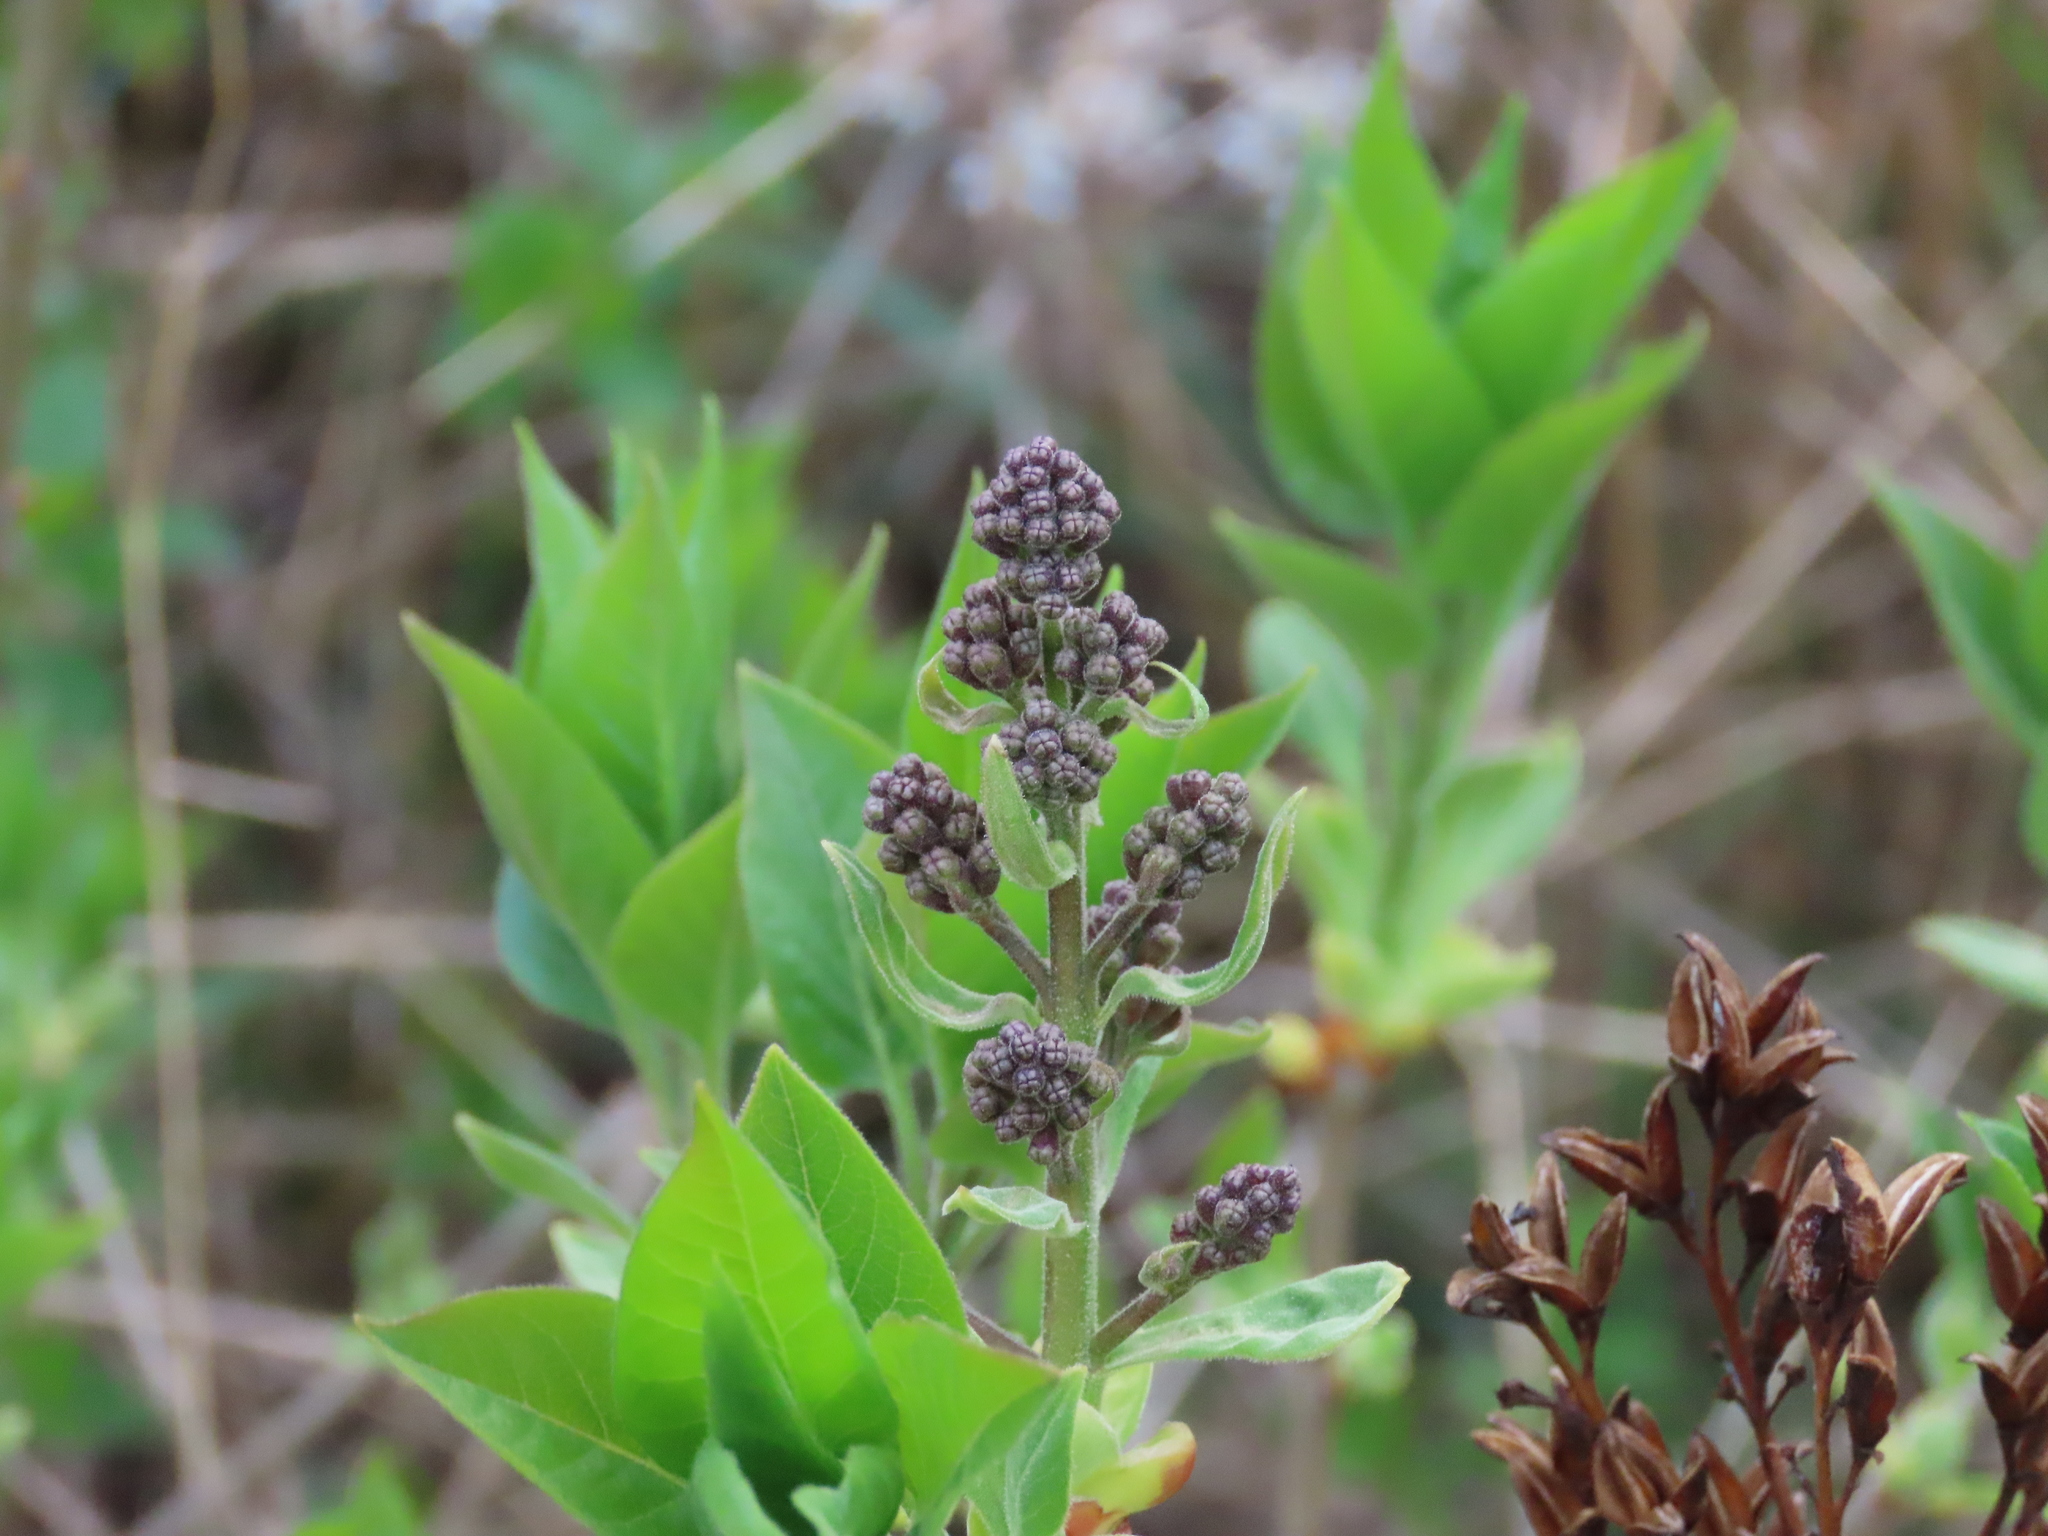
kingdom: Plantae
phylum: Tracheophyta
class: Magnoliopsida
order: Lamiales
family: Oleaceae
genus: Syringa
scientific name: Syringa vulgaris
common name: Common lilac
